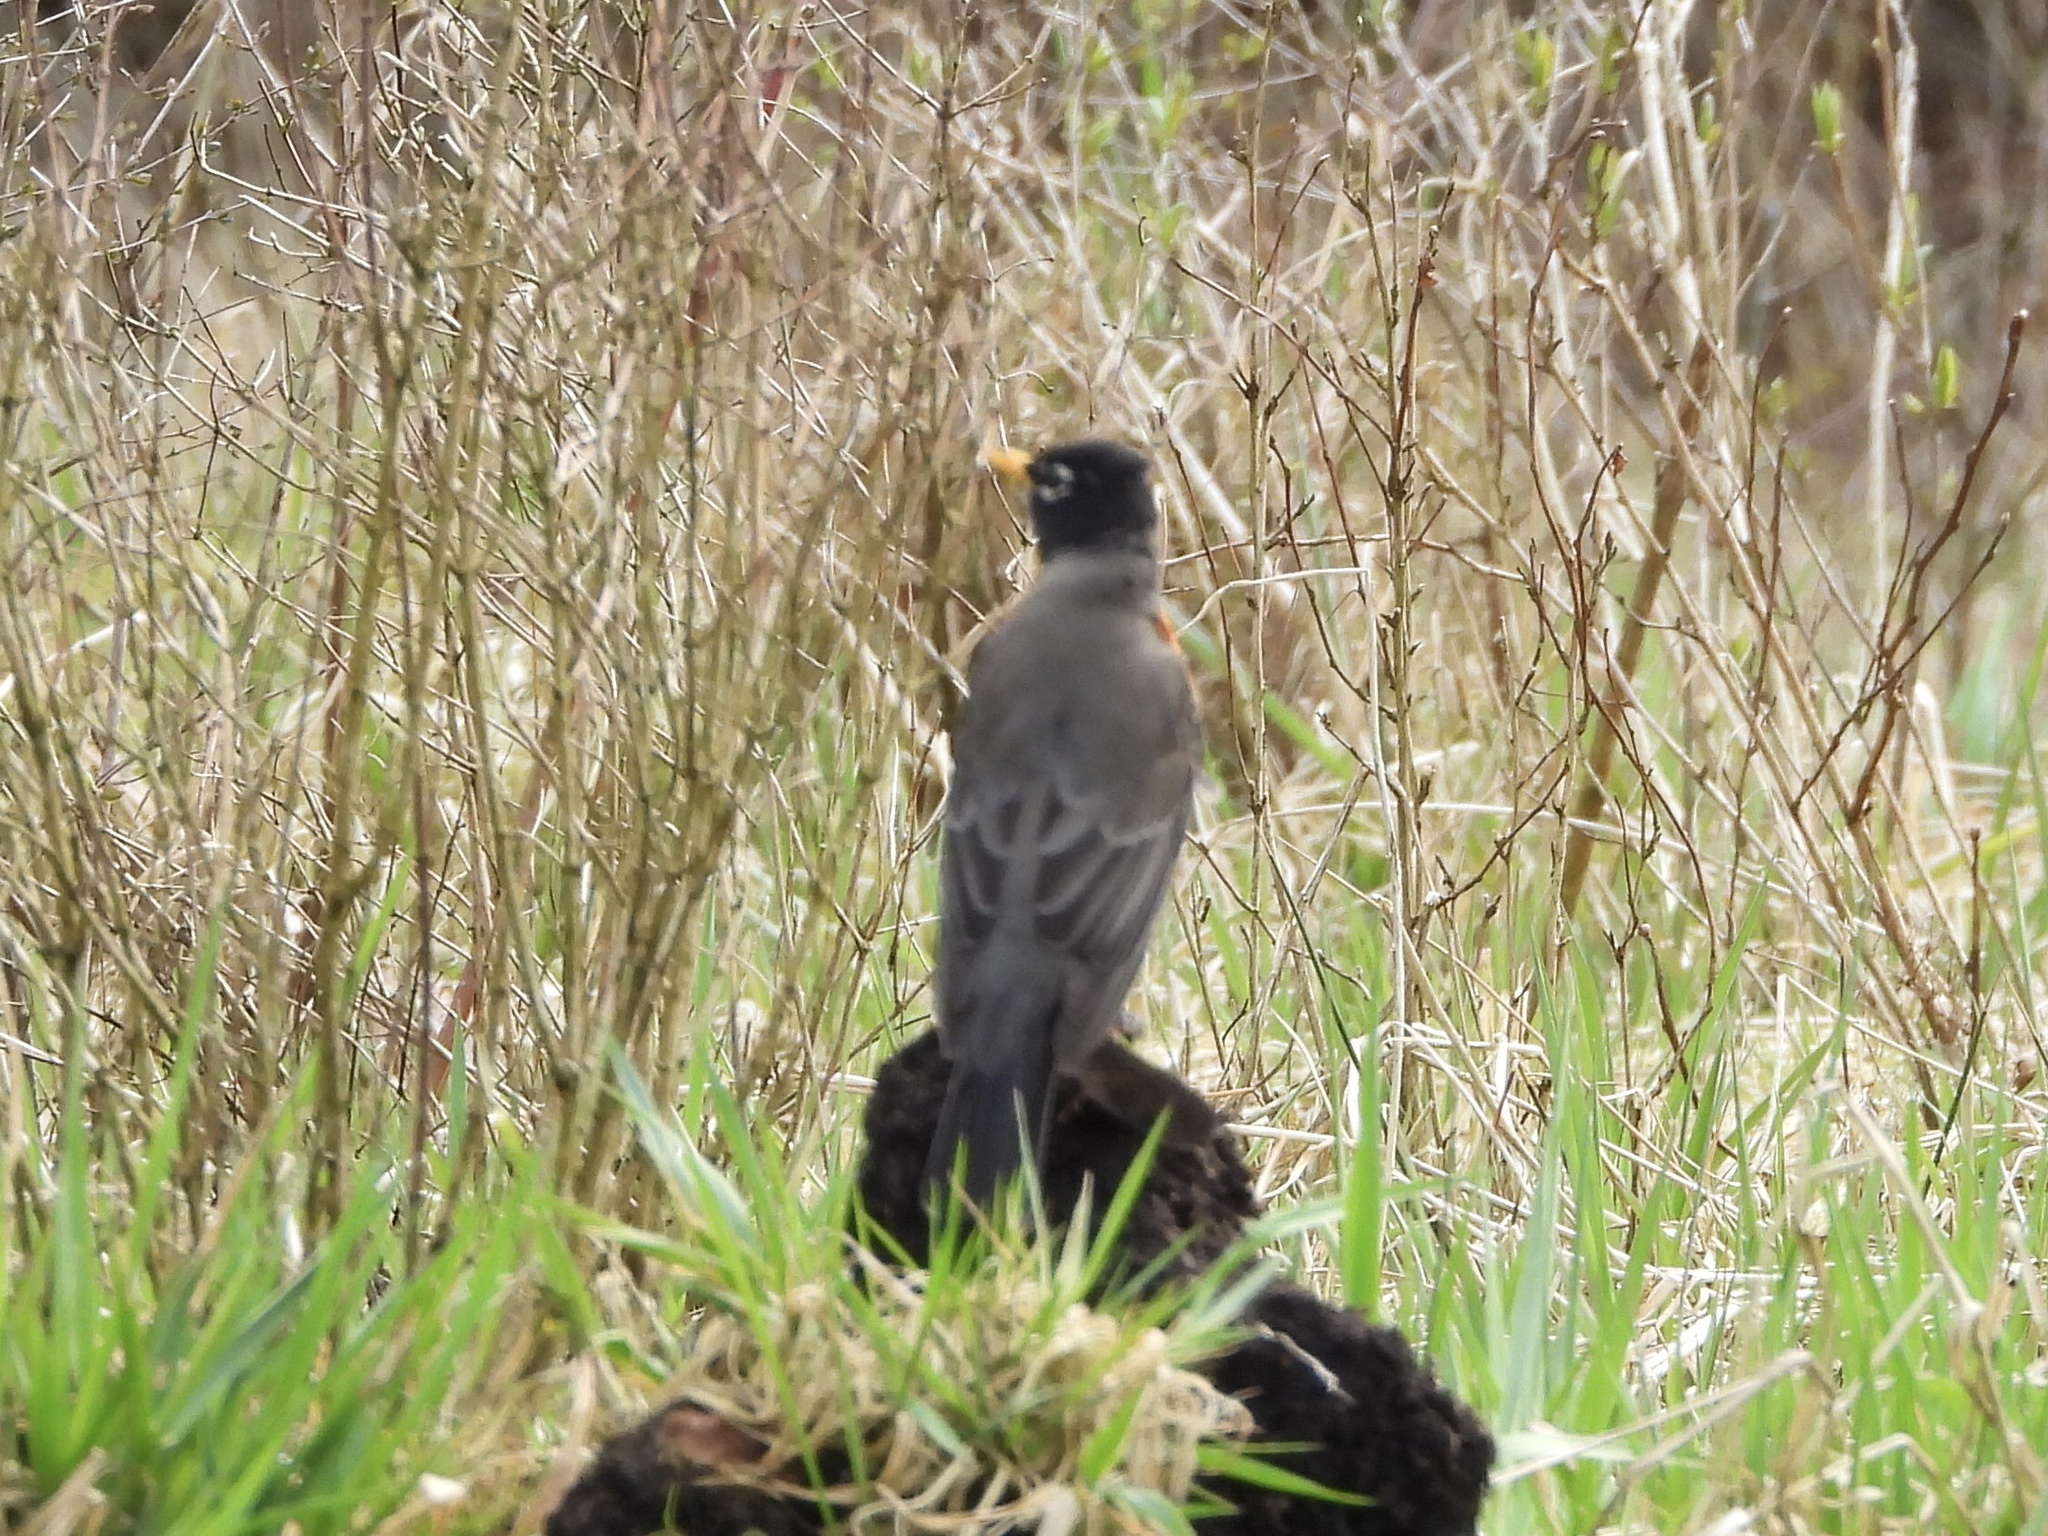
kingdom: Animalia
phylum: Chordata
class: Aves
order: Passeriformes
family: Turdidae
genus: Turdus
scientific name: Turdus migratorius
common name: American robin
